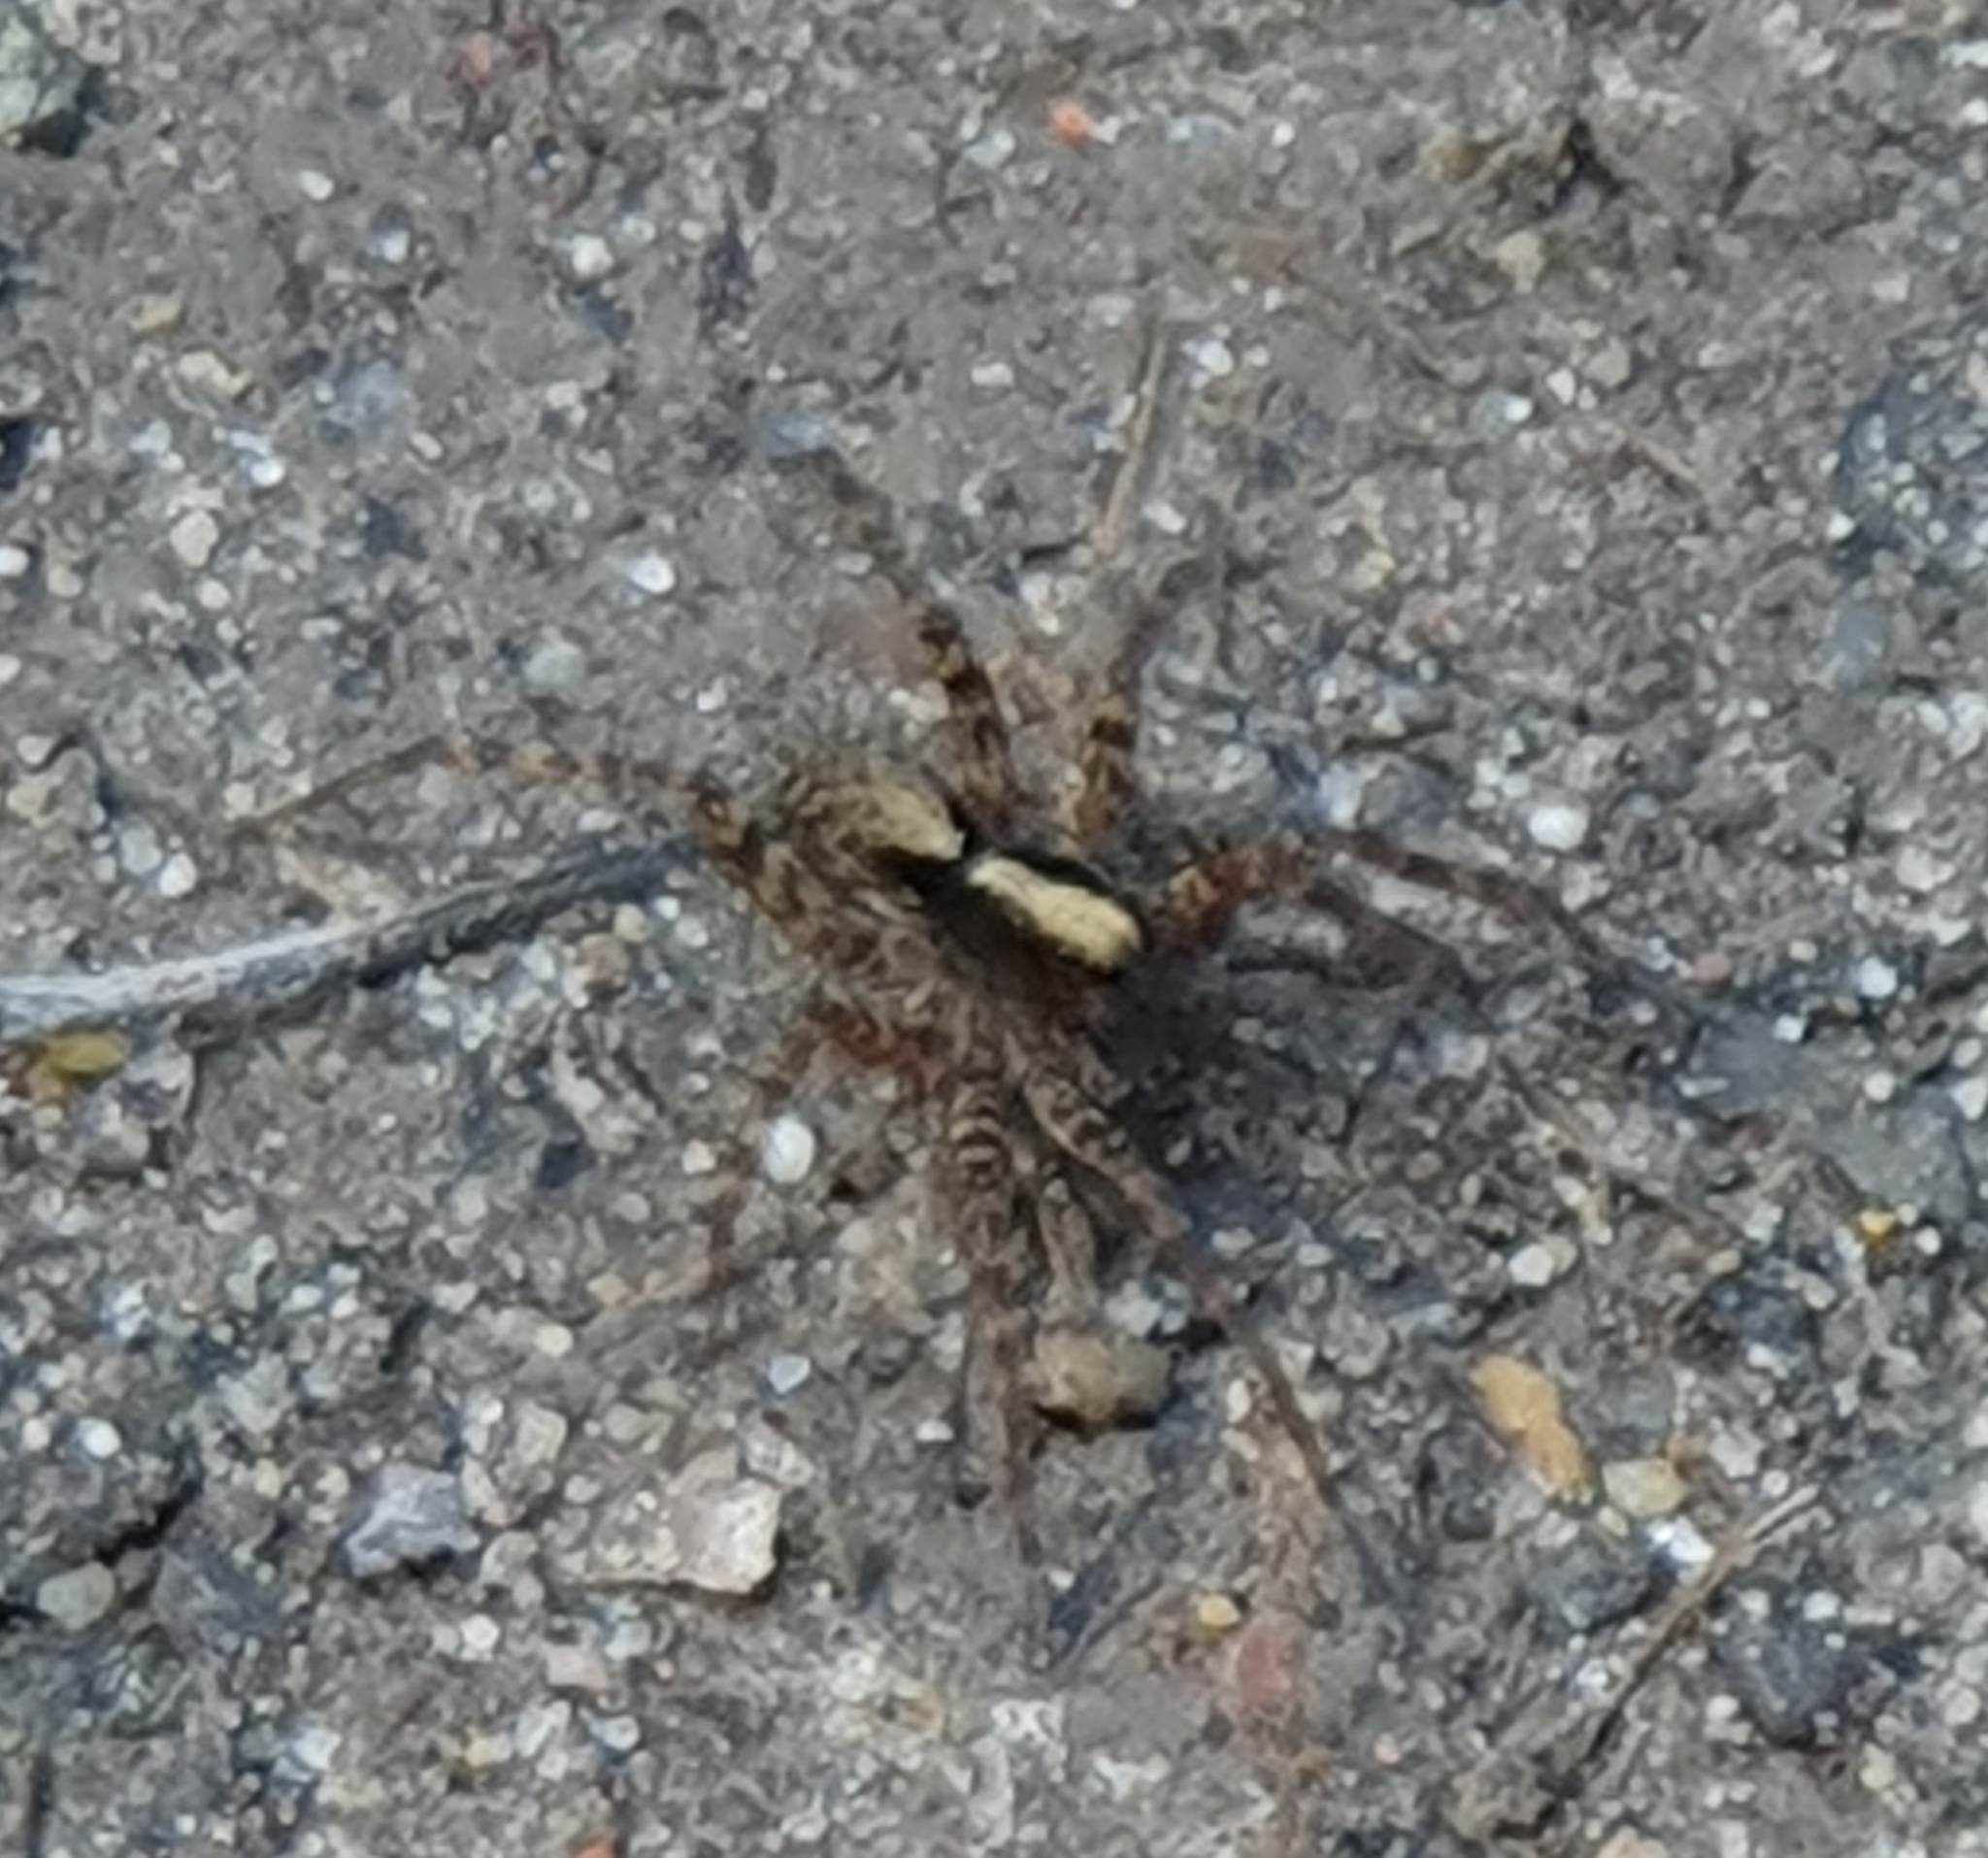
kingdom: Animalia
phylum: Arthropoda
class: Arachnida
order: Araneae
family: Lycosidae
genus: Pardosa
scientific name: Pardosa
